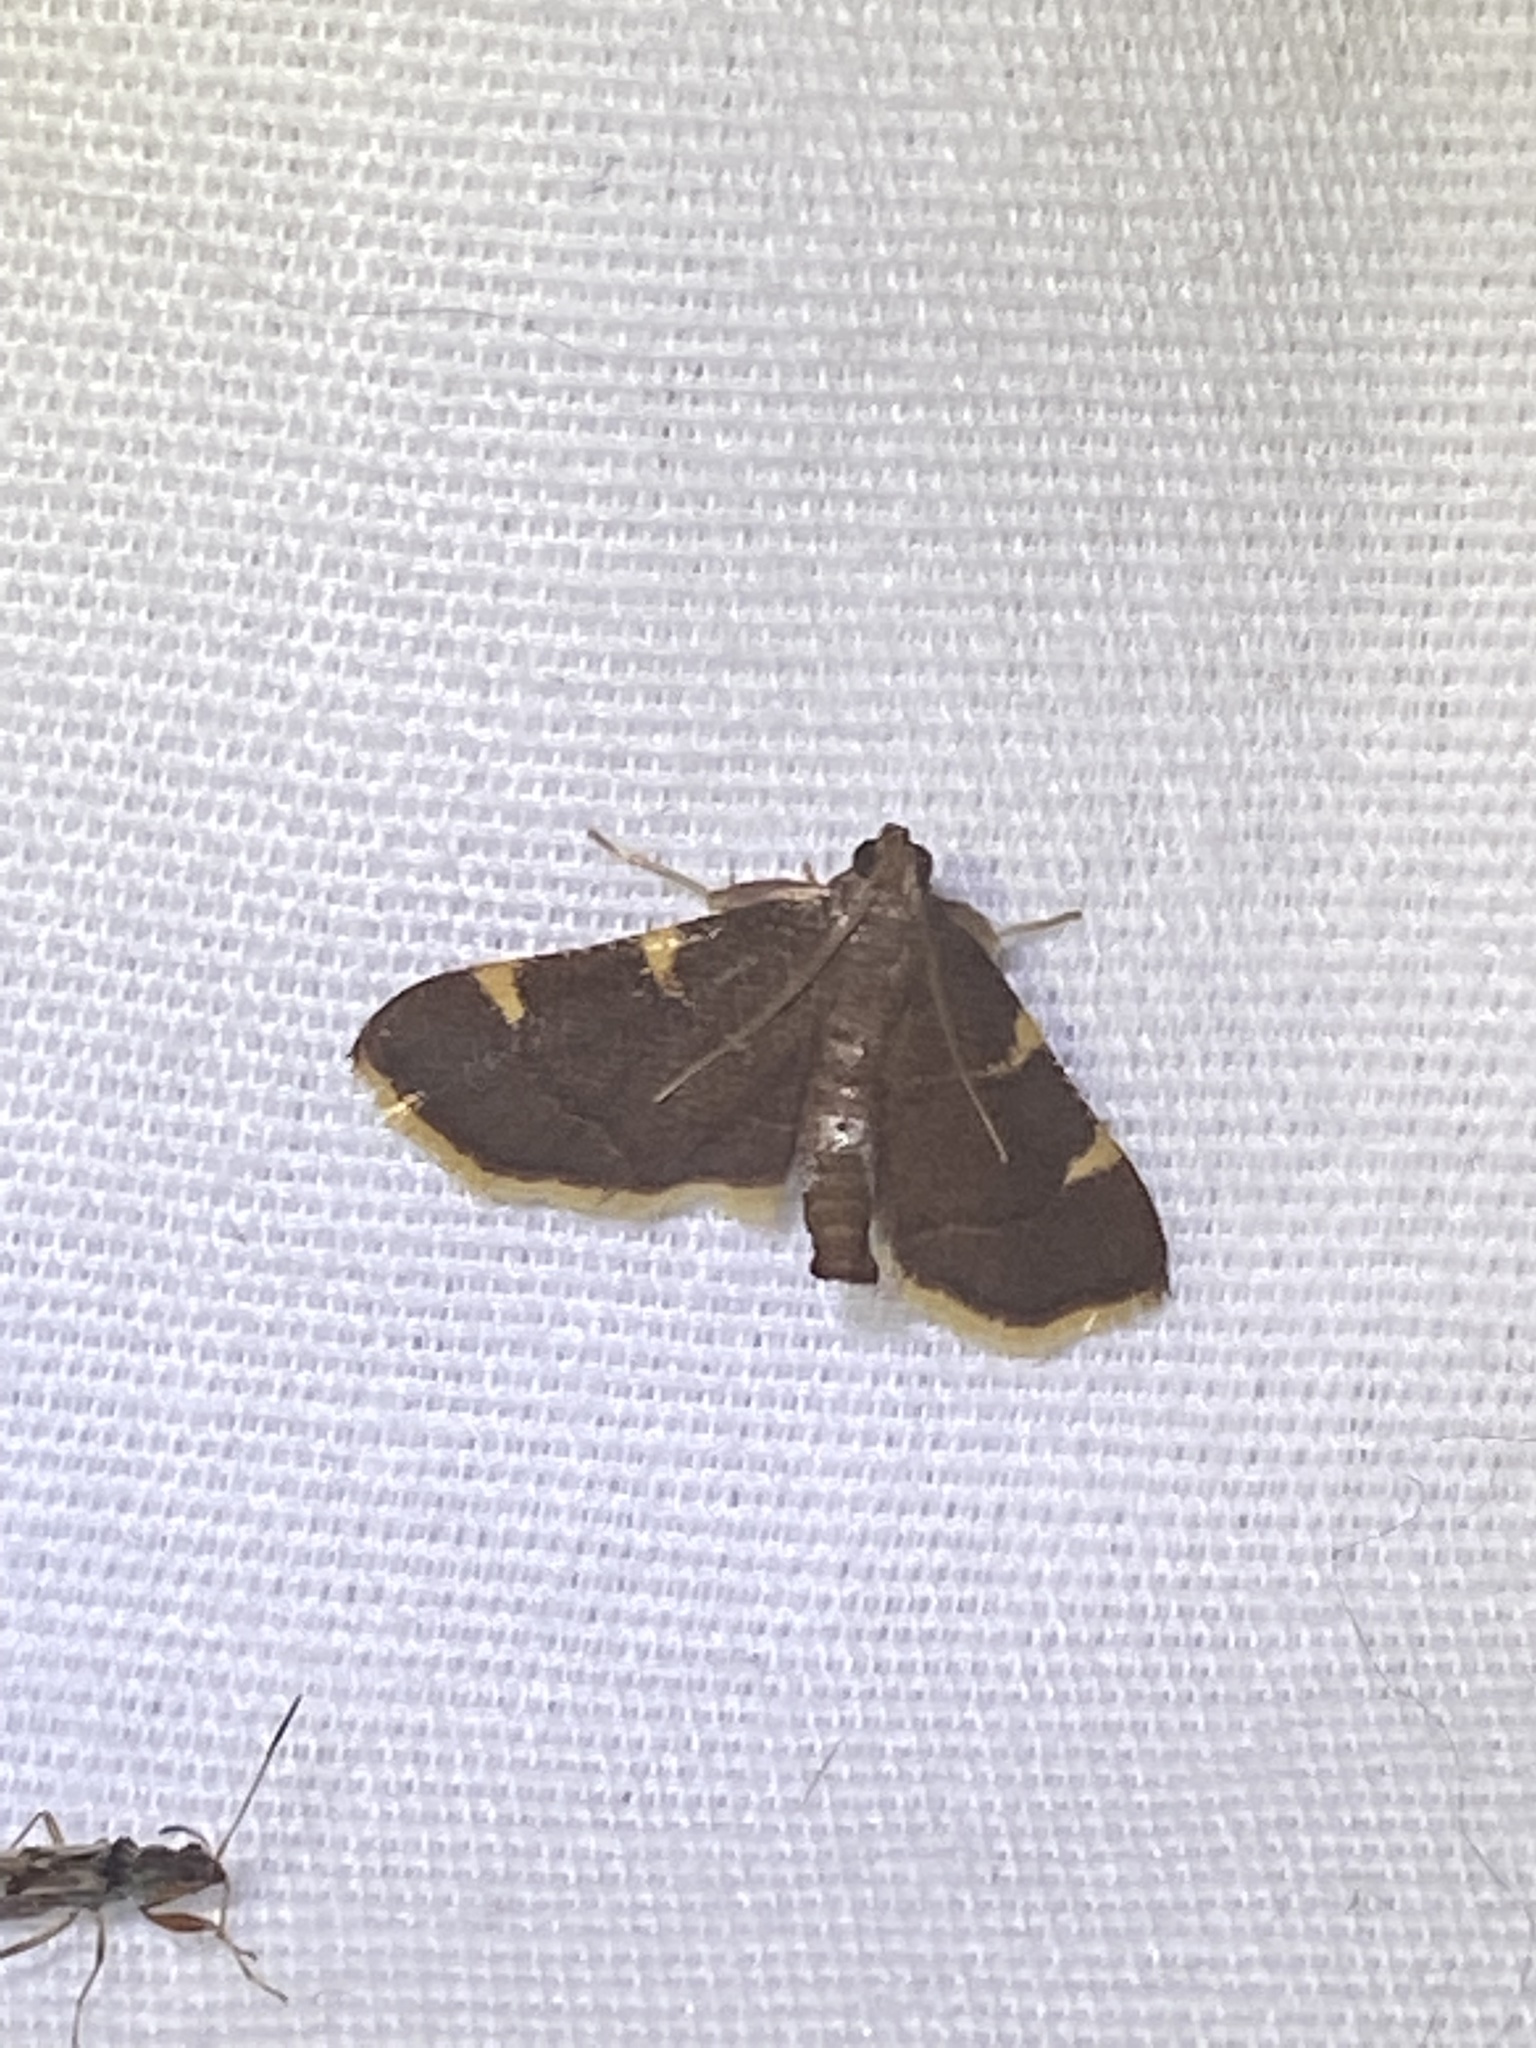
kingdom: Animalia
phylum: Arthropoda
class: Insecta
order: Lepidoptera
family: Pyralidae
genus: Hypsopygia
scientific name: Hypsopygia olinalis
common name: Yellow-fringed dolichomia moth
